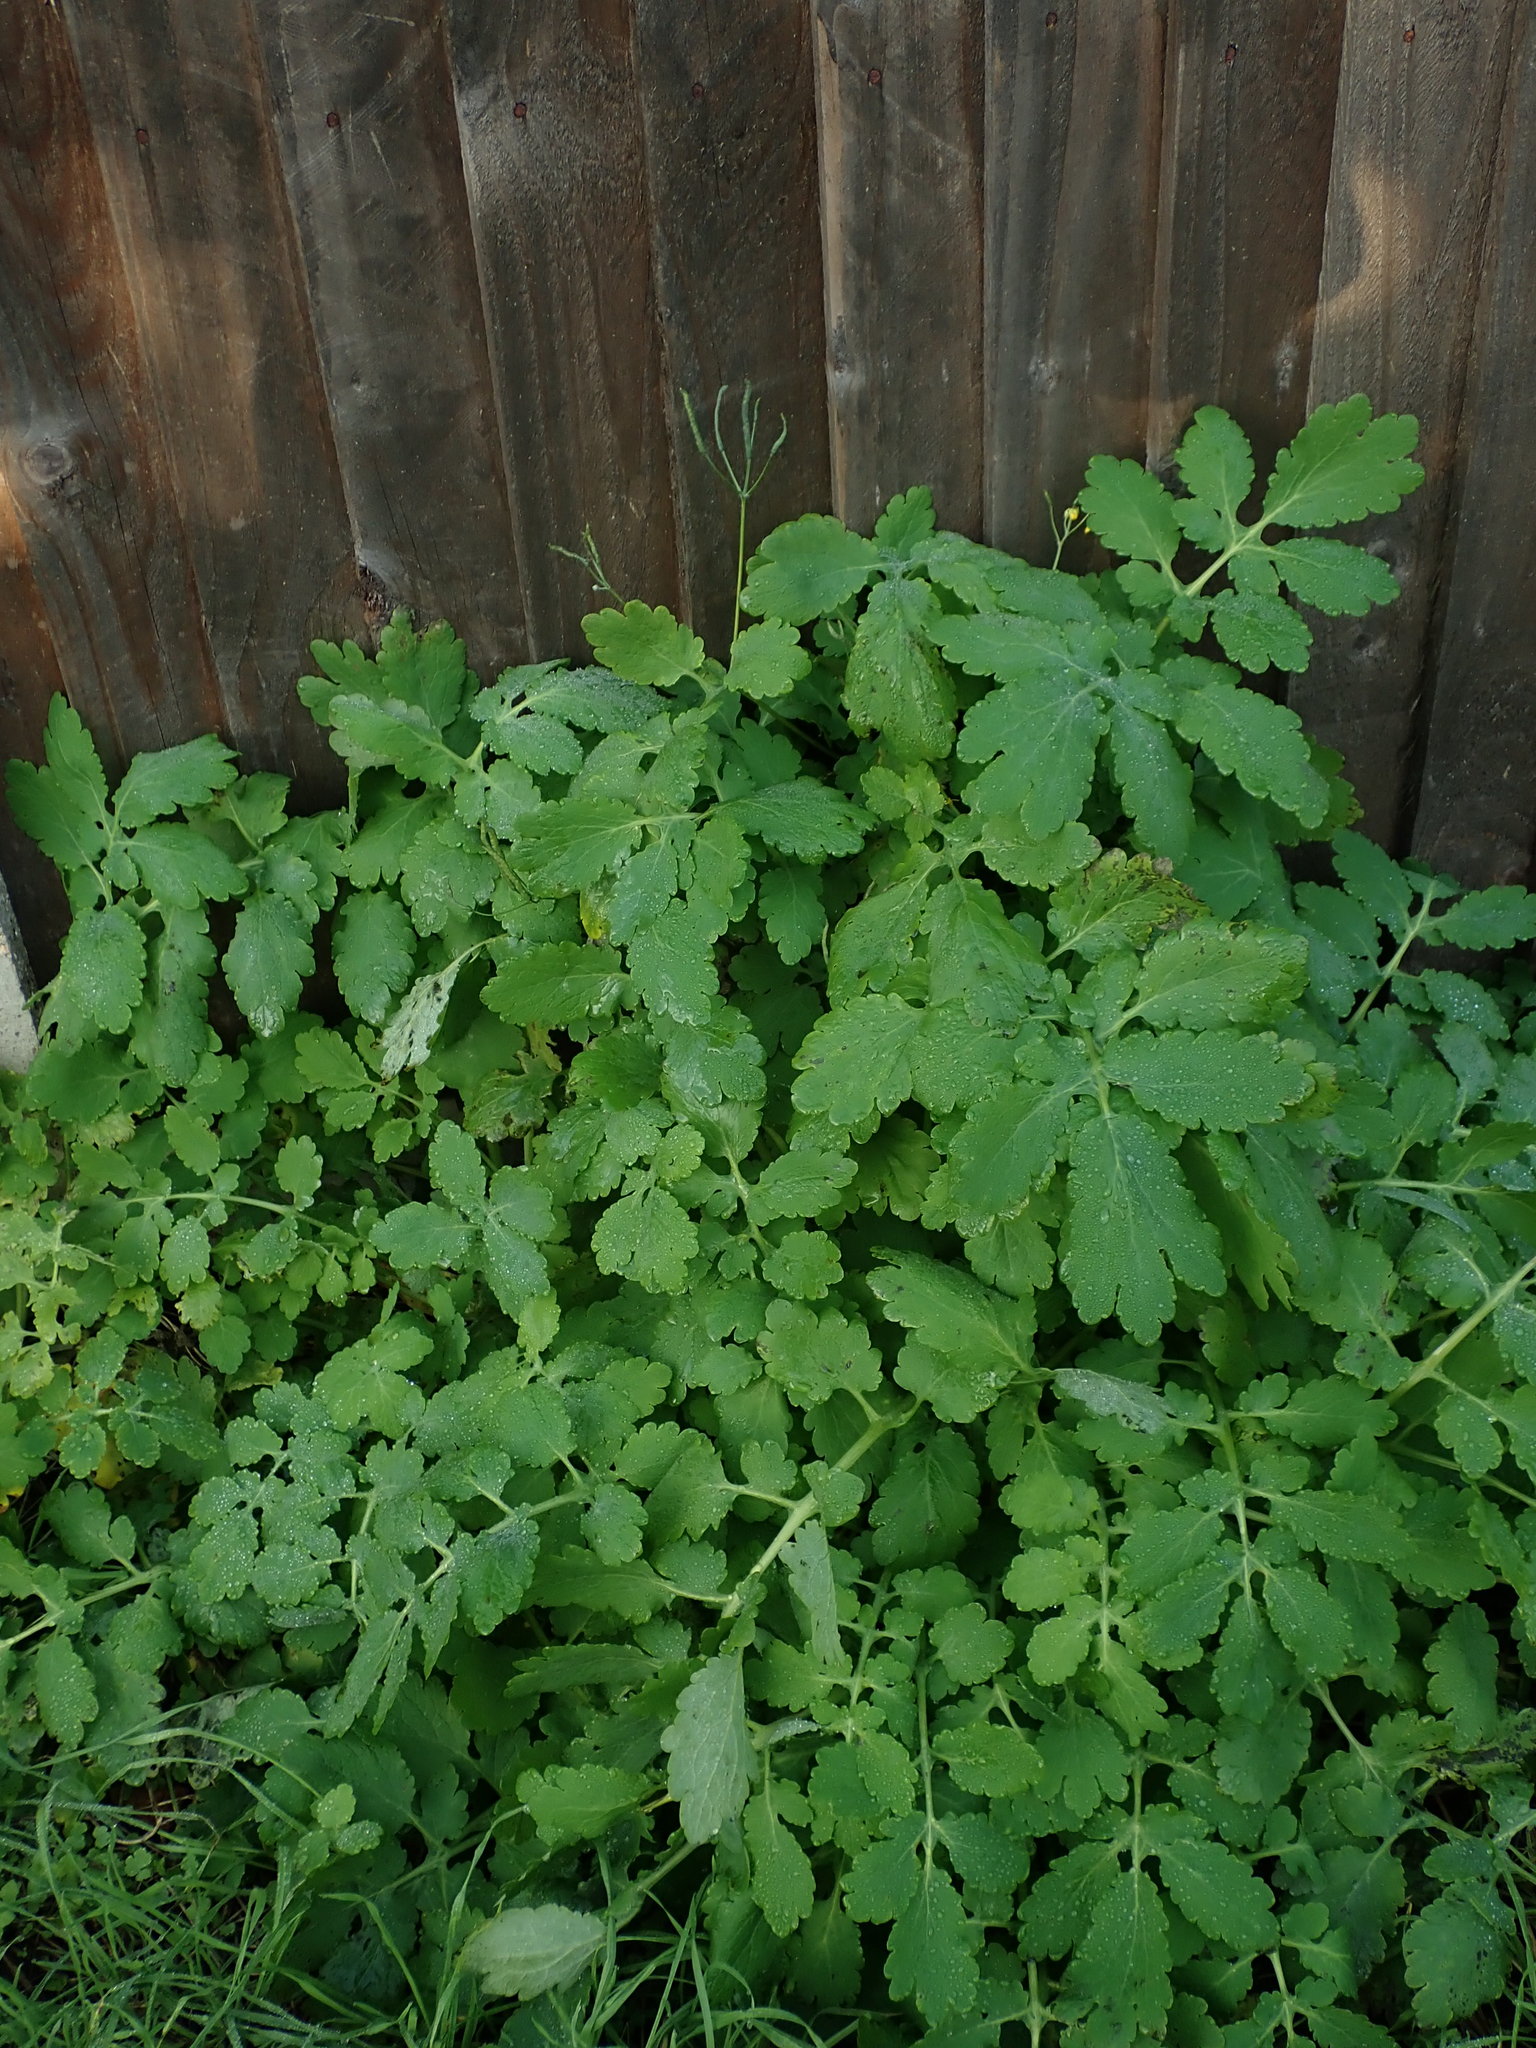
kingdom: Plantae
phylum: Tracheophyta
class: Magnoliopsida
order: Ranunculales
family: Papaveraceae
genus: Chelidonium
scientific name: Chelidonium majus
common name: Greater celandine
